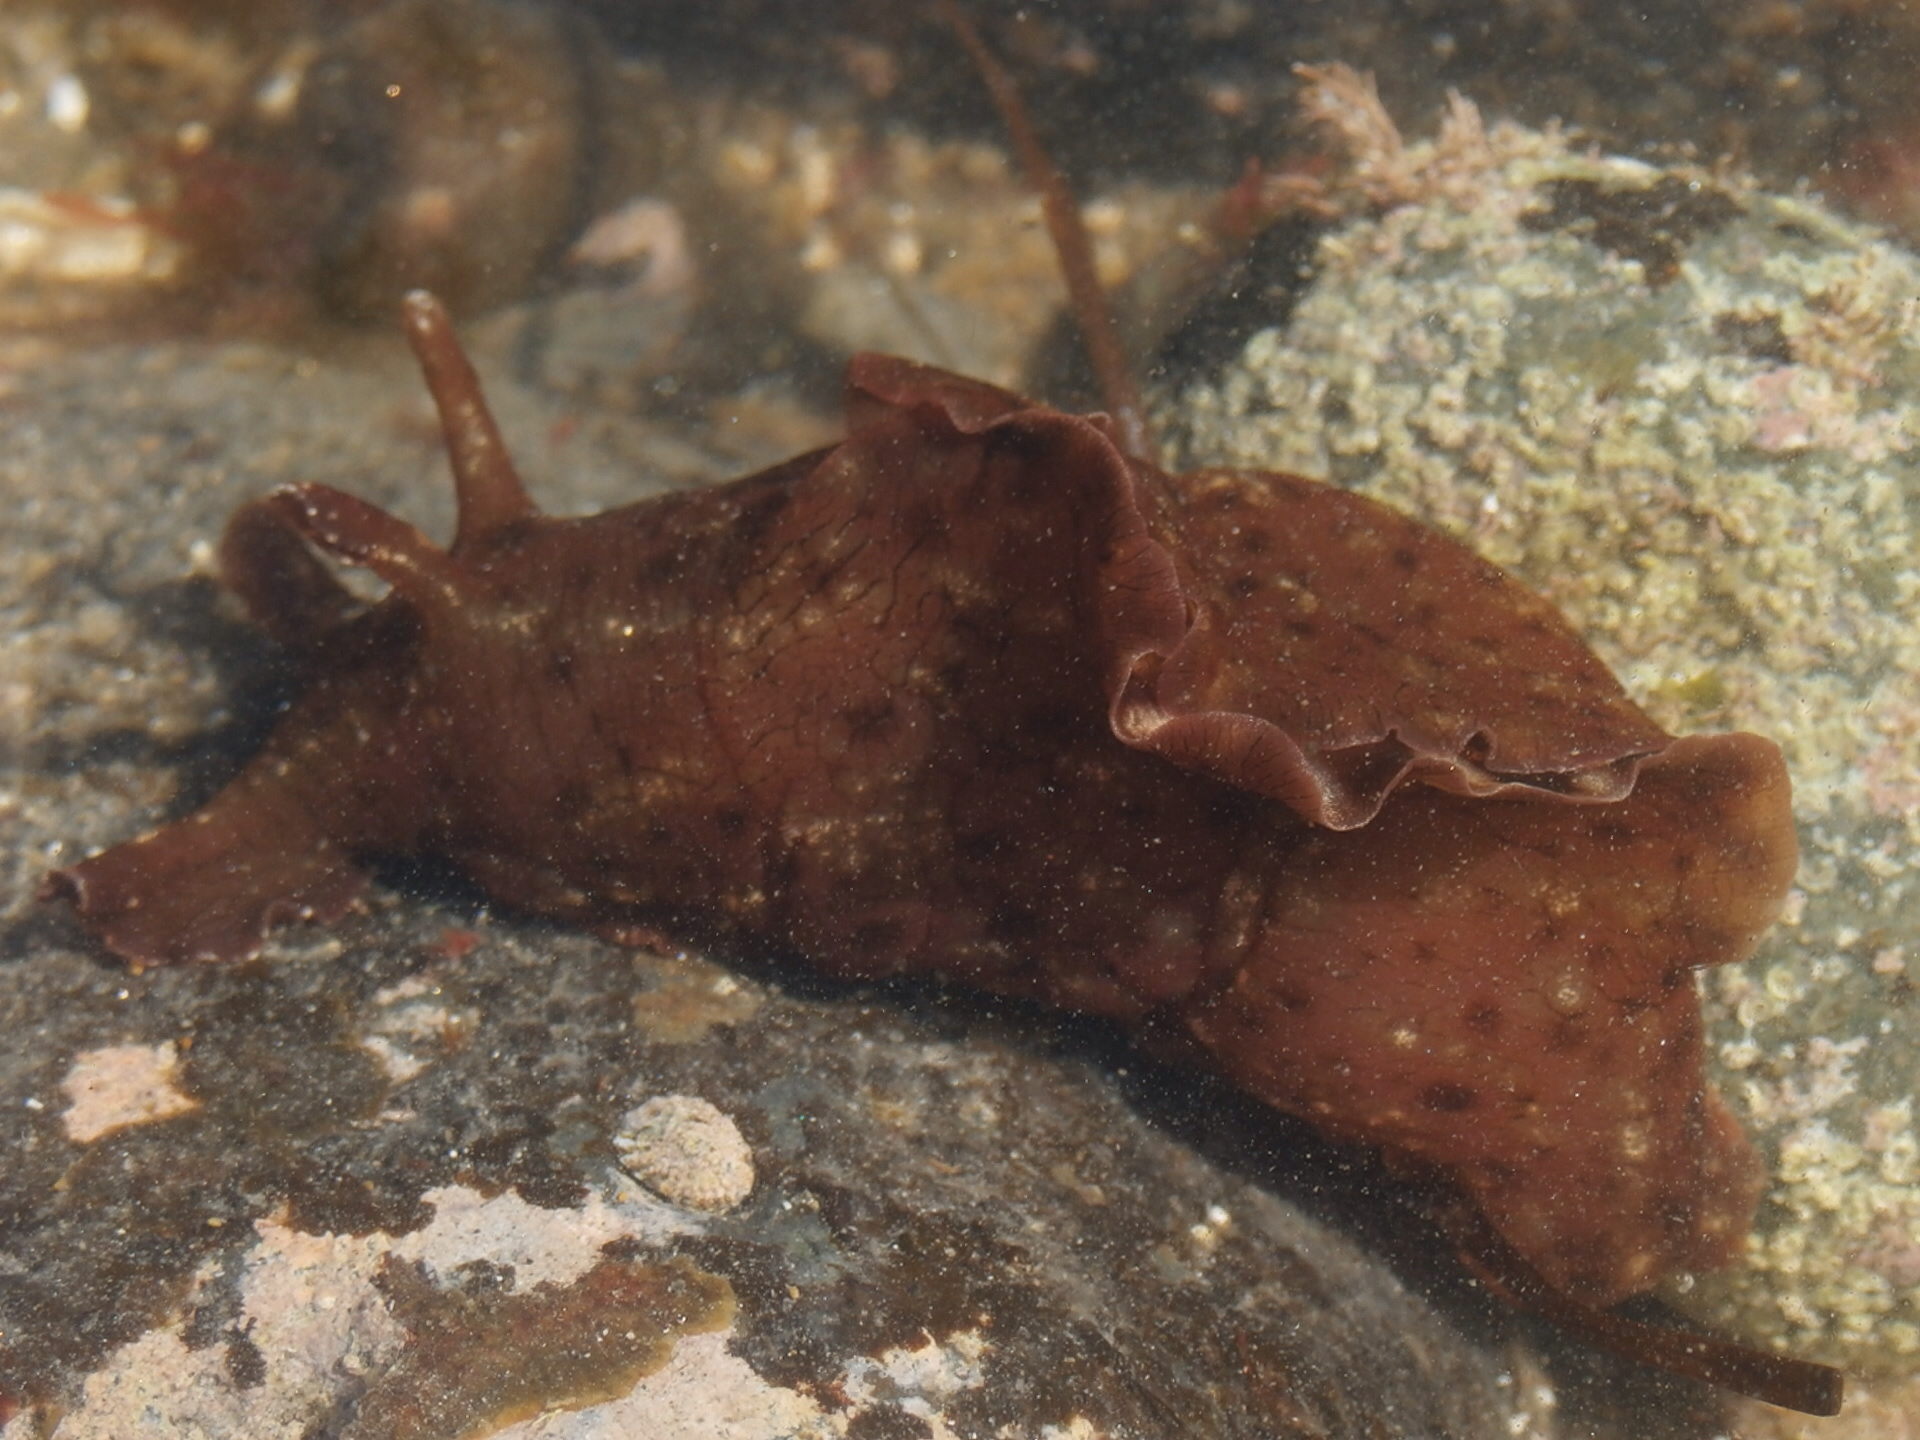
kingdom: Animalia
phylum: Mollusca
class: Gastropoda
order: Aplysiida
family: Aplysiidae
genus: Aplysia
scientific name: Aplysia californica
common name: California seahare
